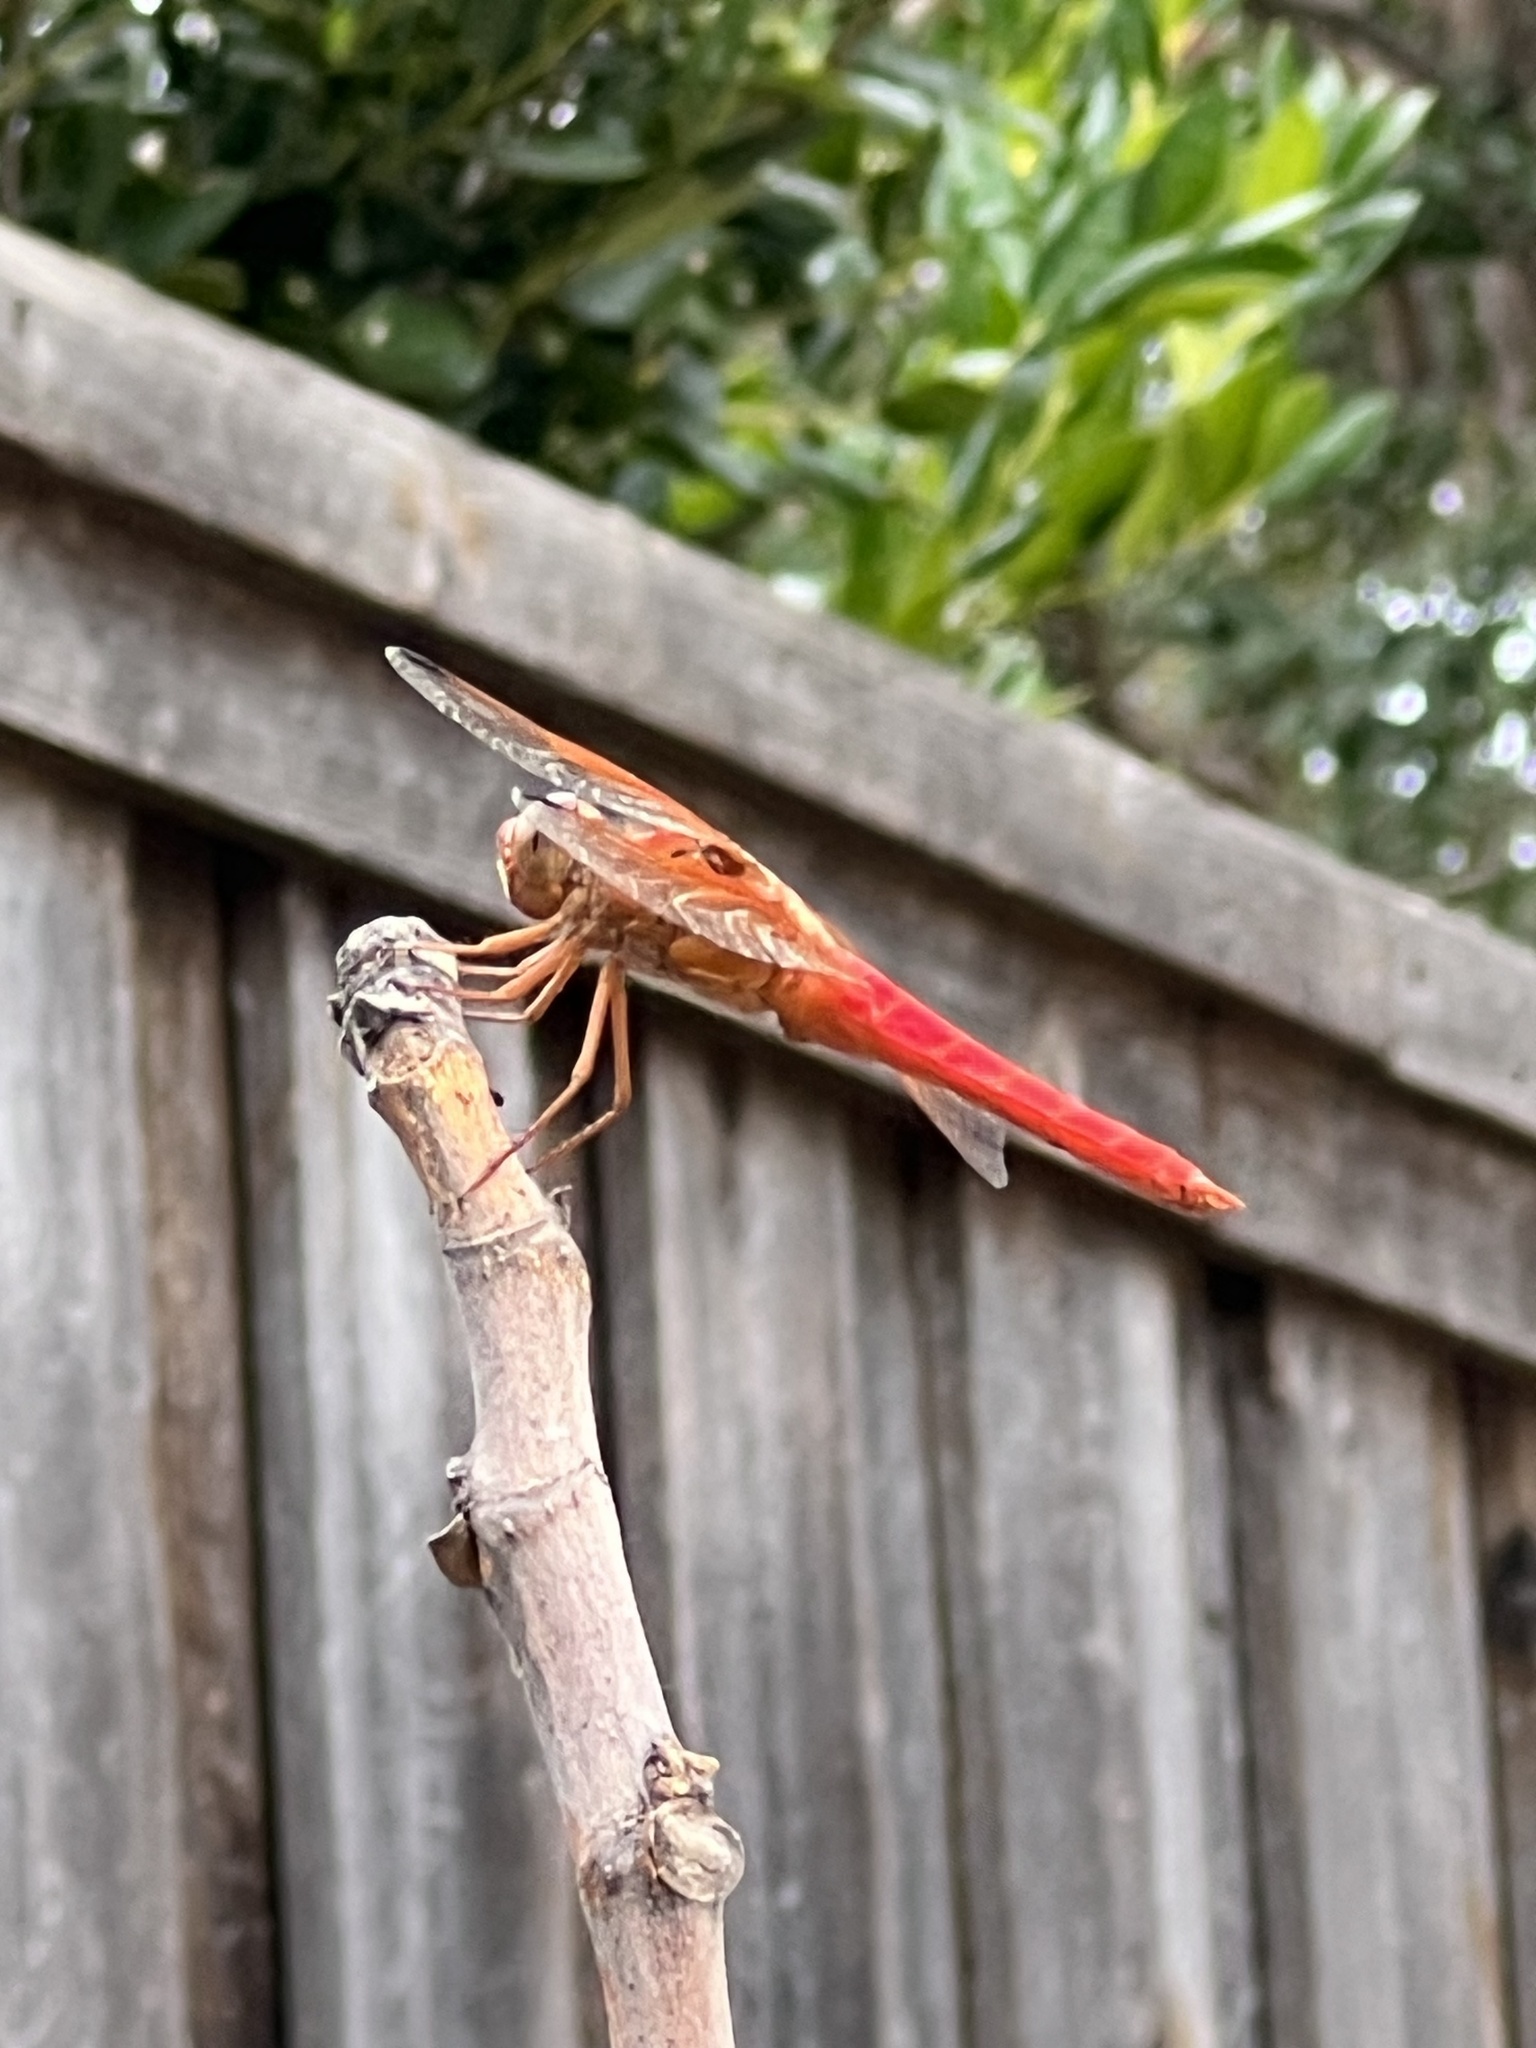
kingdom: Animalia
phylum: Arthropoda
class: Insecta
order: Odonata
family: Libellulidae
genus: Libellula
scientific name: Libellula croceipennis
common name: Neon skimmer
